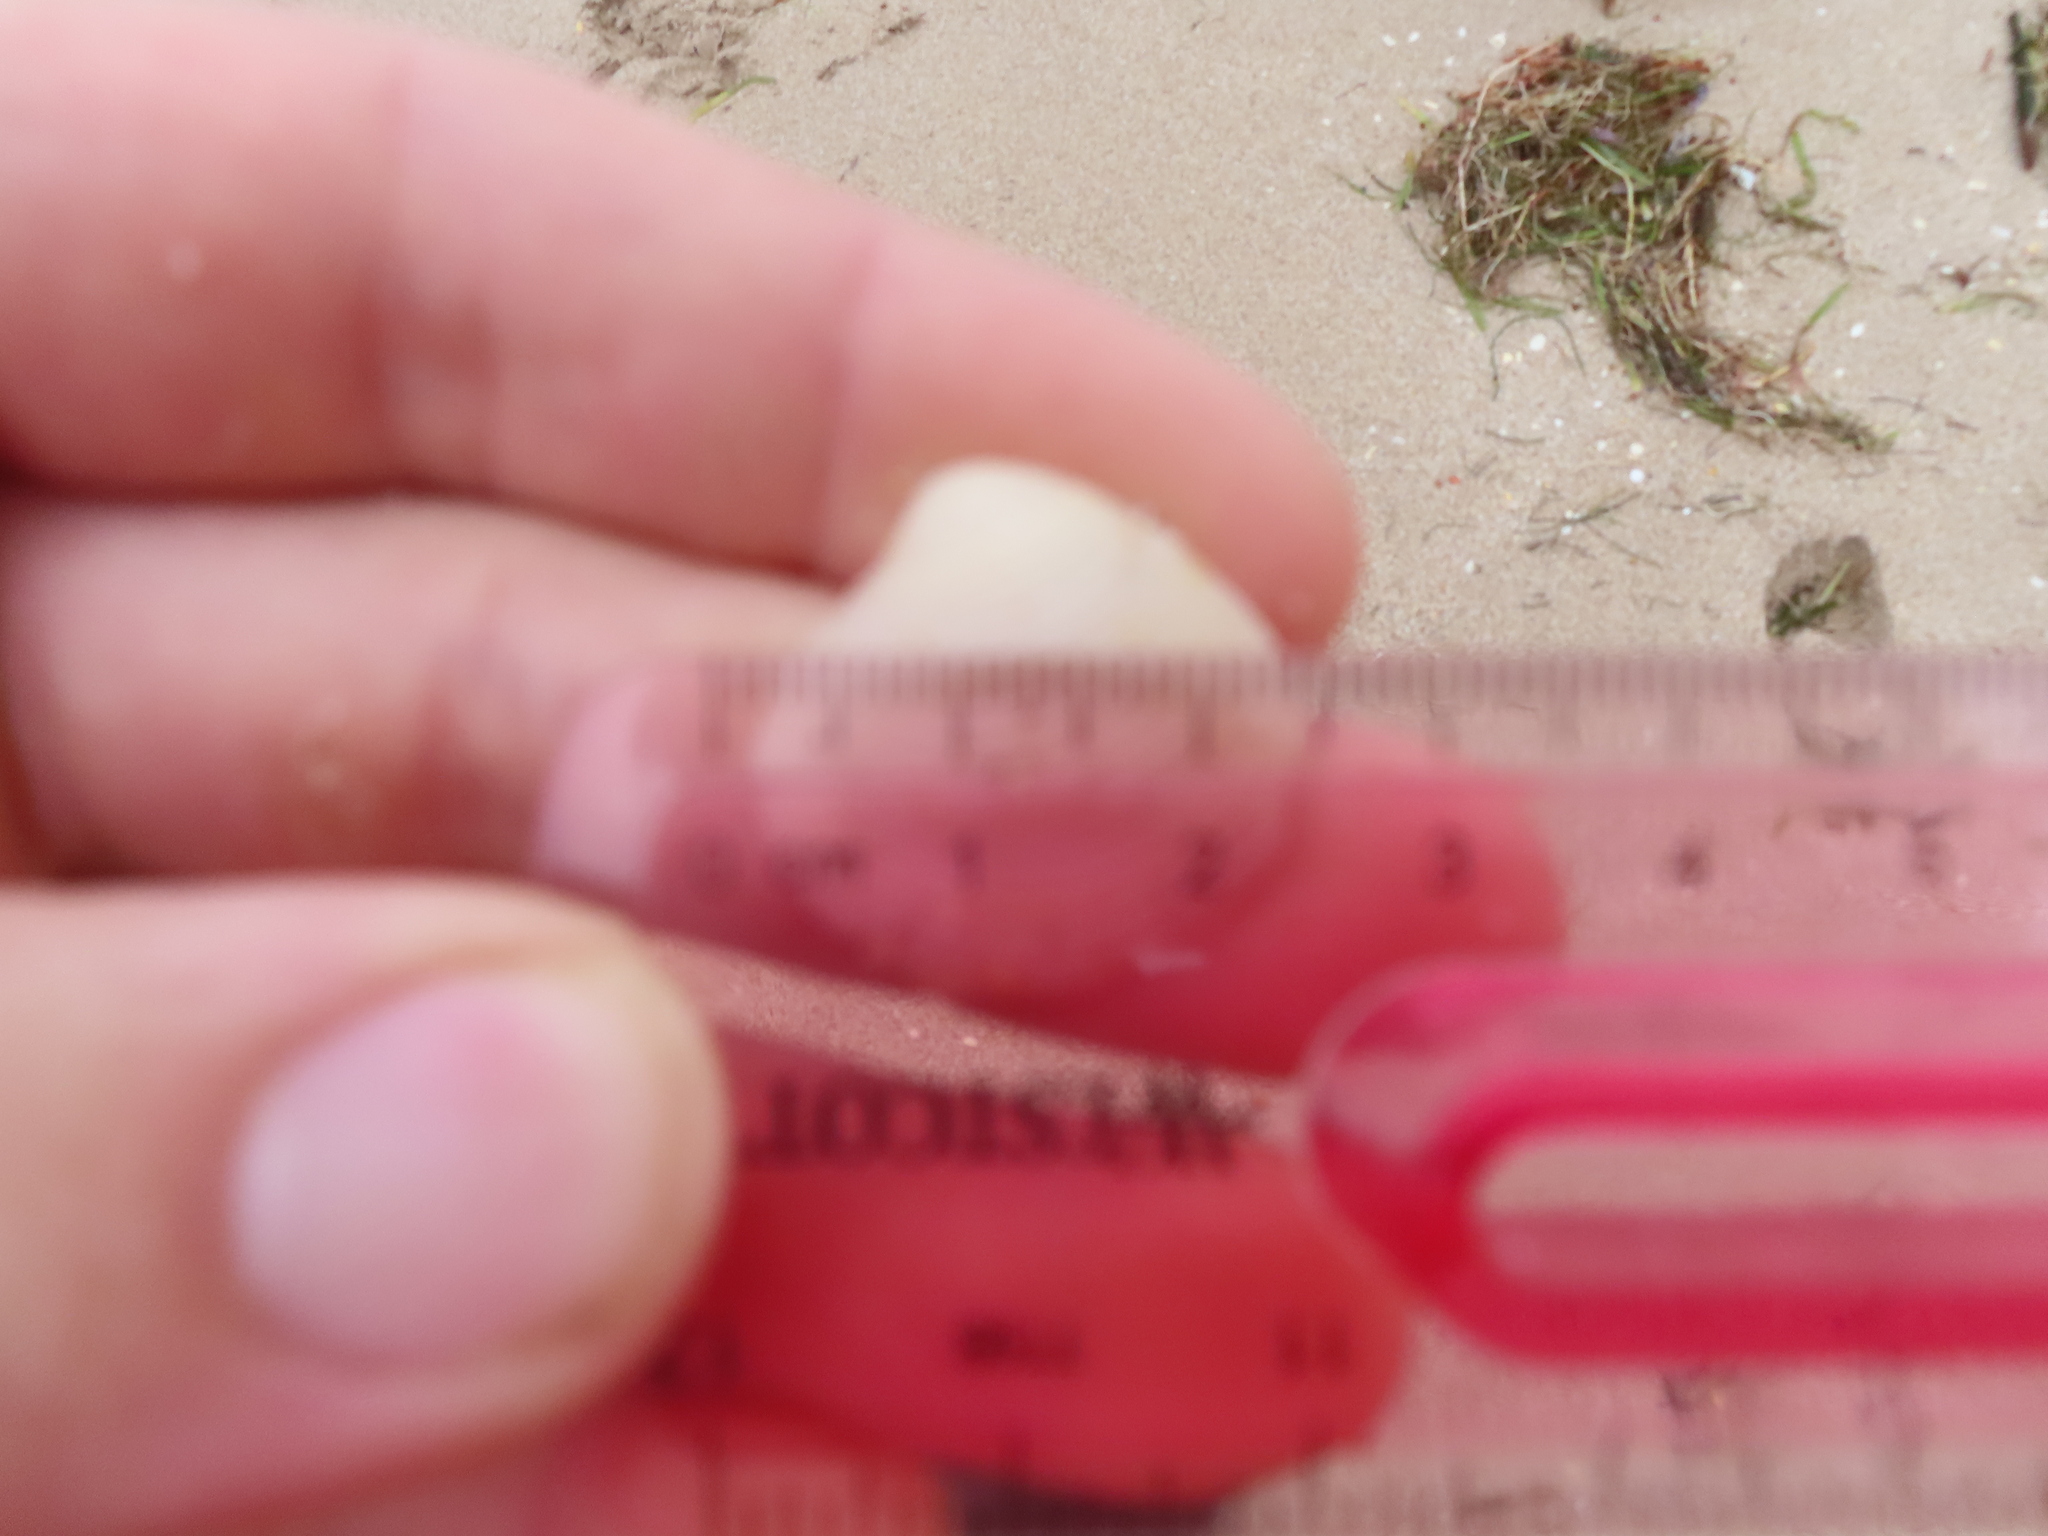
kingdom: Animalia
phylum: Mollusca
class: Bivalvia
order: Venerida
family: Veneridae
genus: Chionopsis
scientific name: Chionopsis intapurpurea
